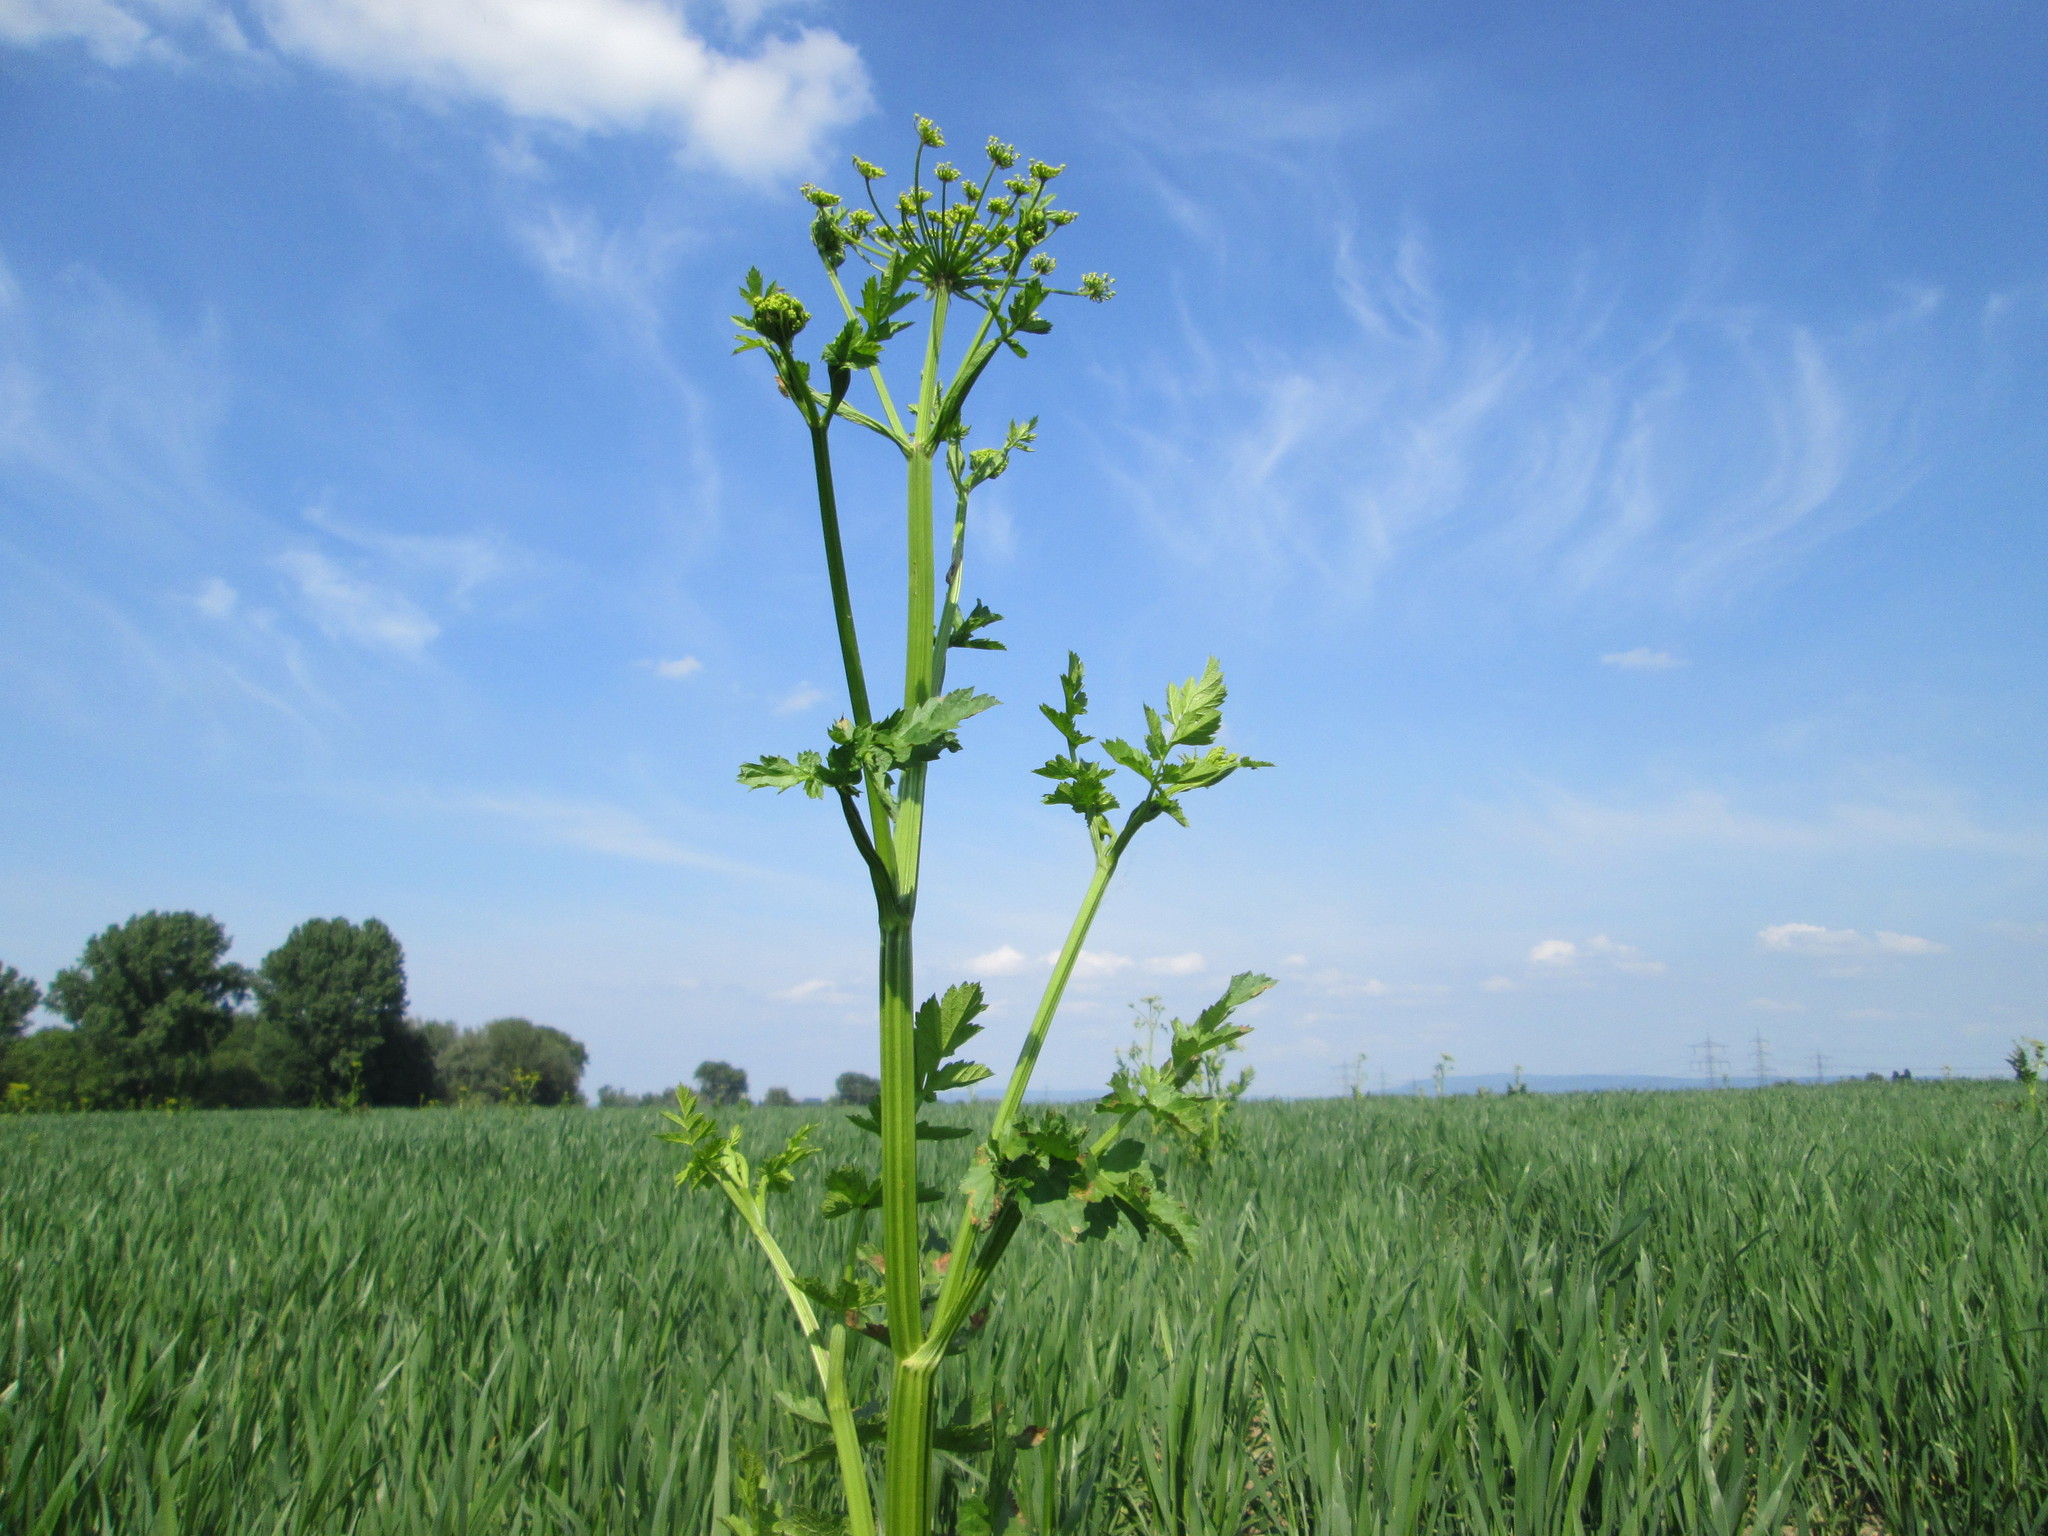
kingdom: Plantae
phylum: Tracheophyta
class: Magnoliopsida
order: Apiales
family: Apiaceae
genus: Pastinaca
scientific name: Pastinaca sativa
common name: Wild parsnip
